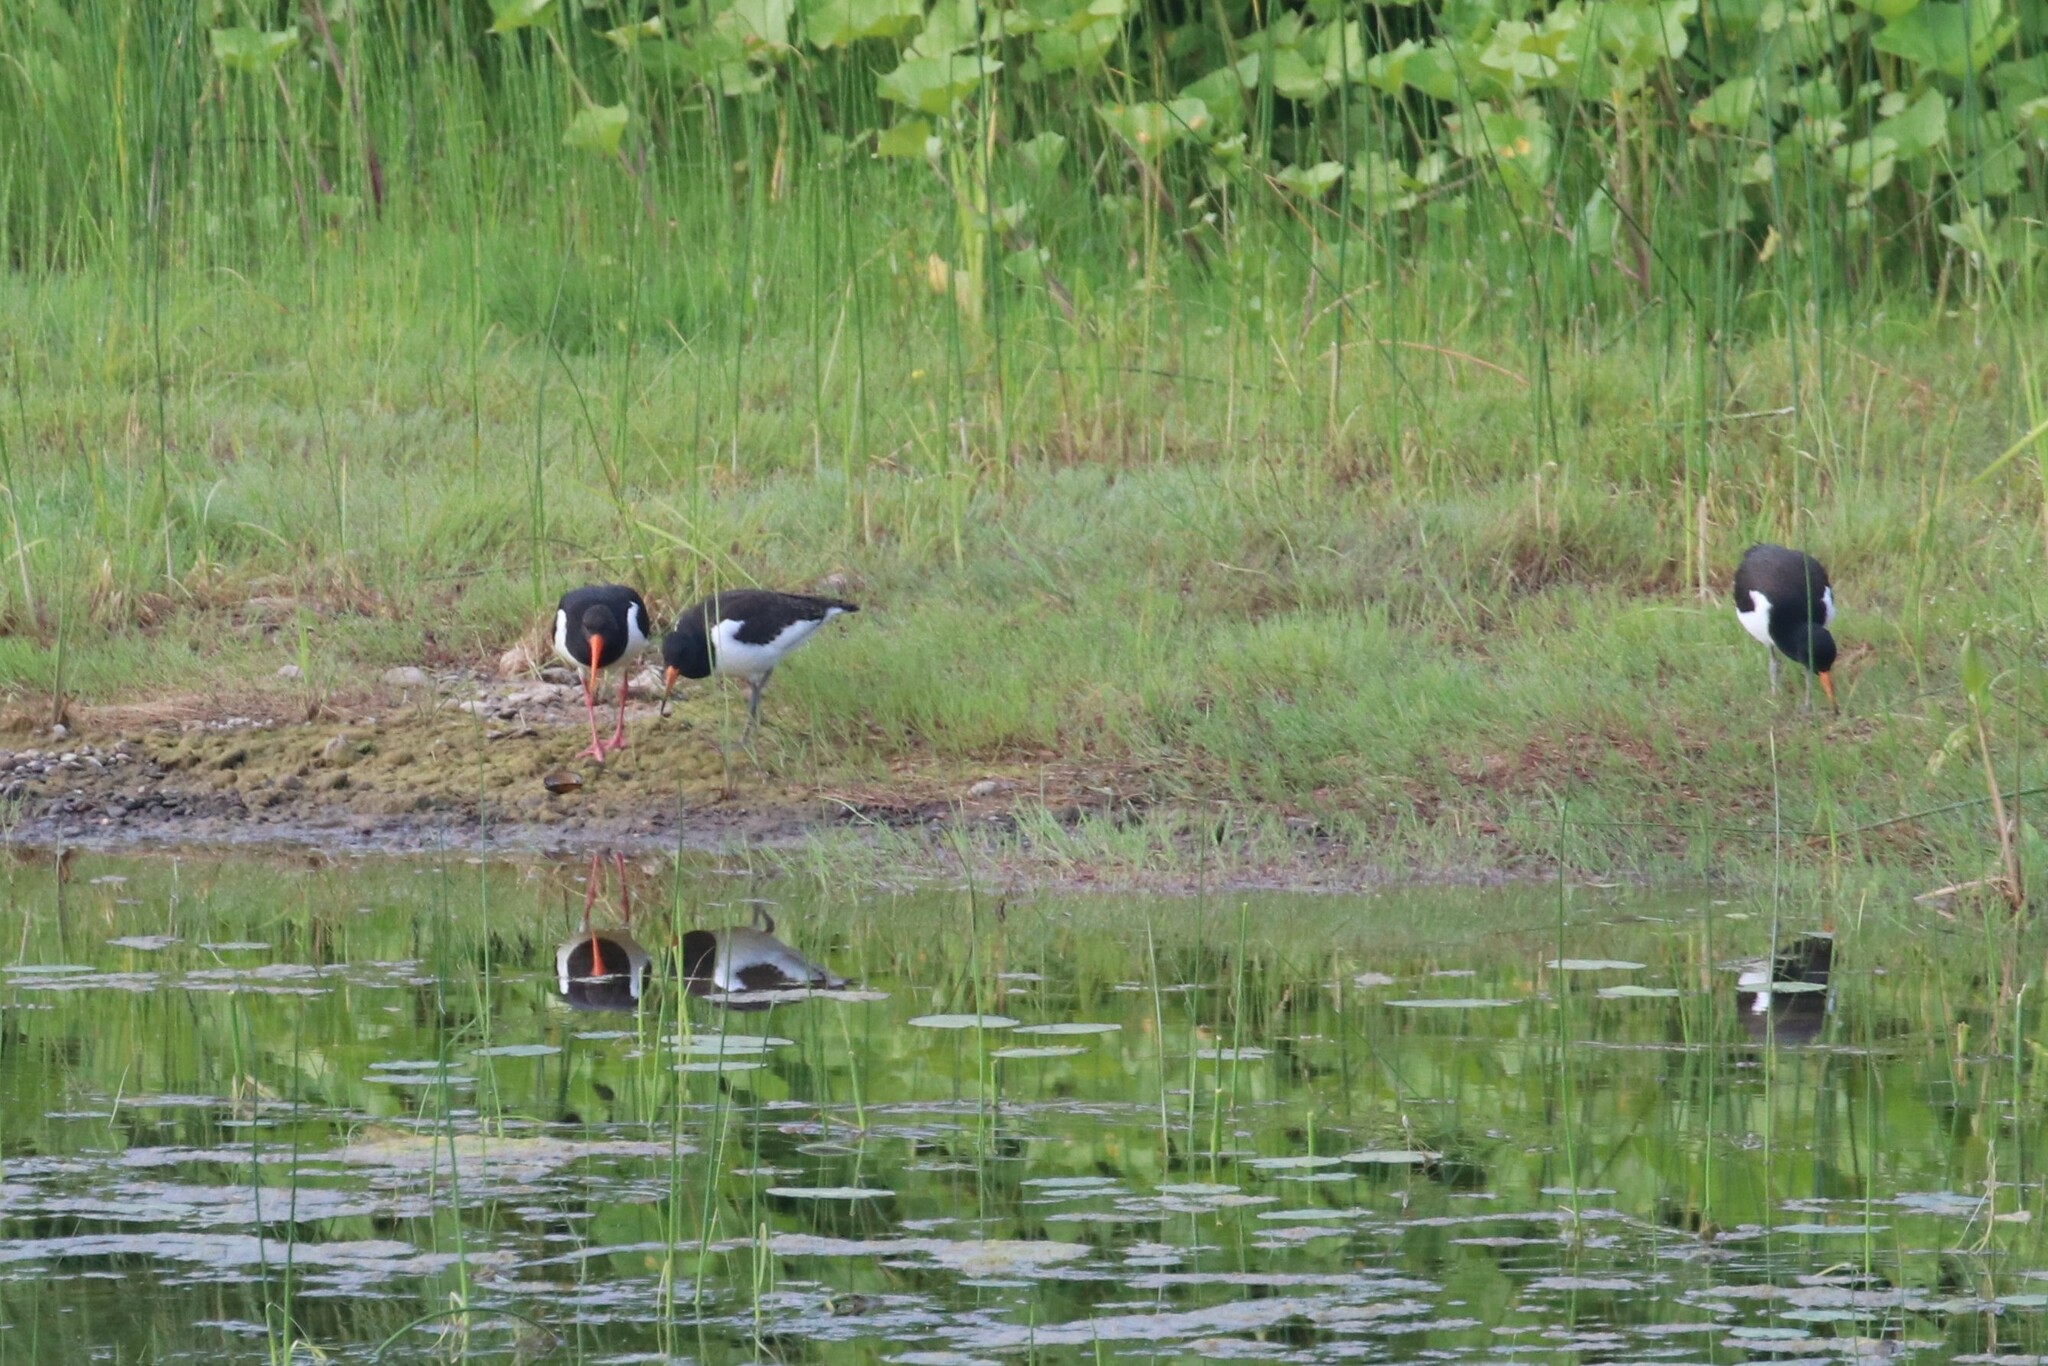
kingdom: Animalia
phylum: Chordata
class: Aves
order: Charadriiformes
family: Haematopodidae
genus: Haematopus
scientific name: Haematopus ostralegus
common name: Eurasian oystercatcher
